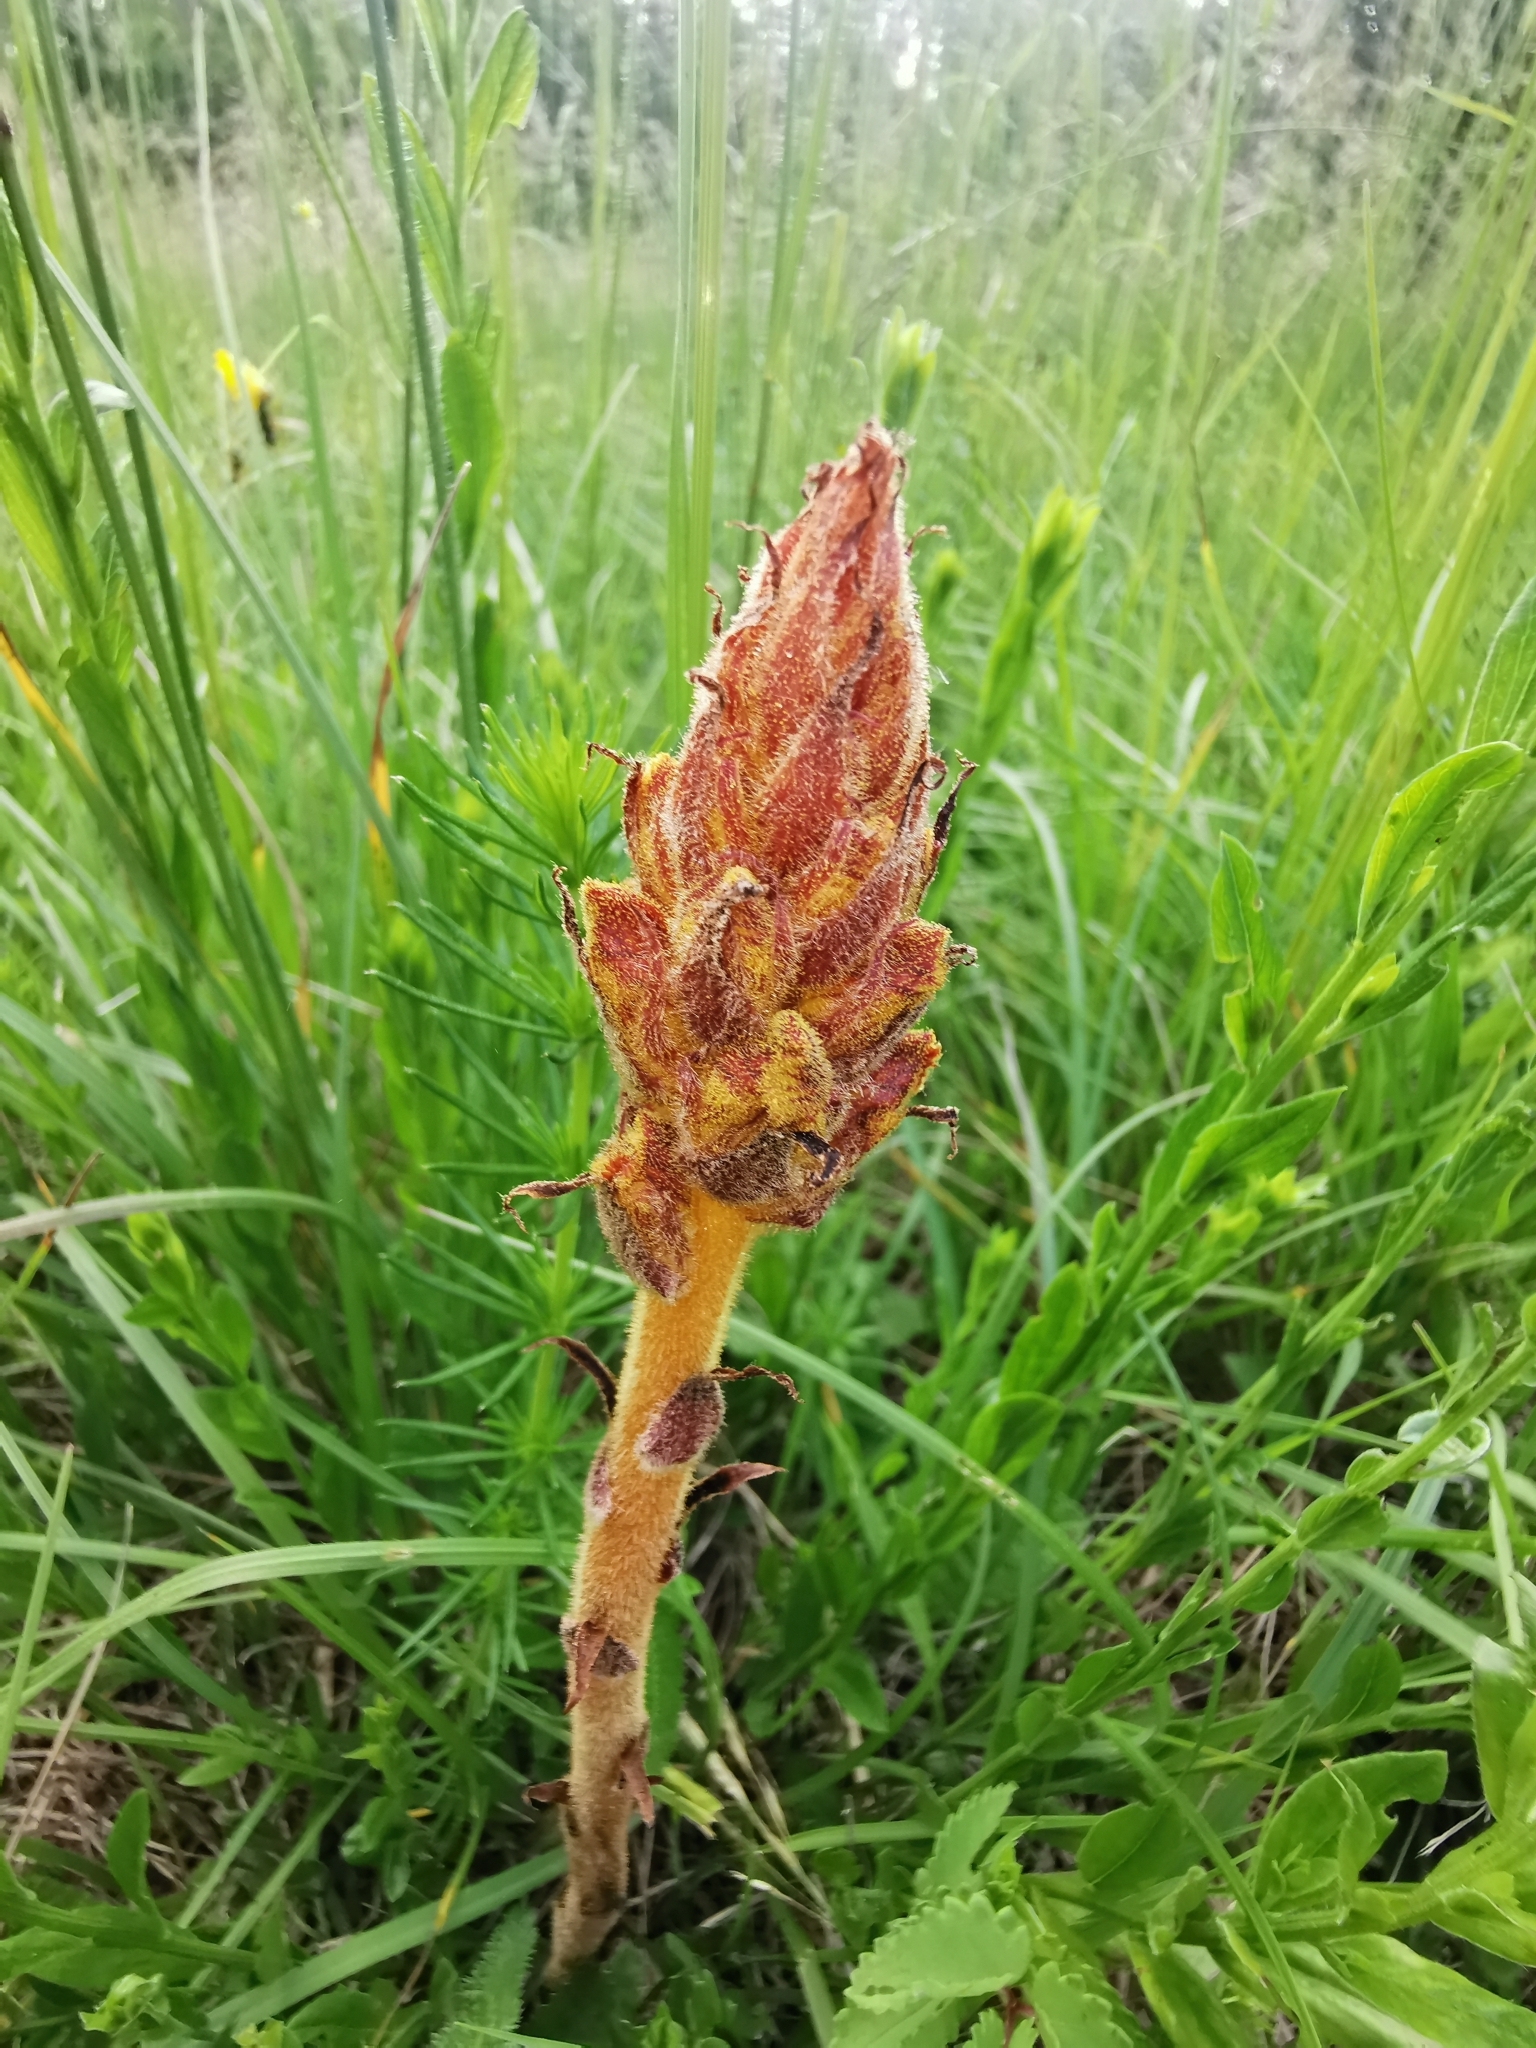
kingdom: Plantae
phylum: Tracheophyta
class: Magnoliopsida
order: Lamiales
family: Orobanchaceae
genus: Orobanche
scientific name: Orobanche gracilis
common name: Slender broomrape
